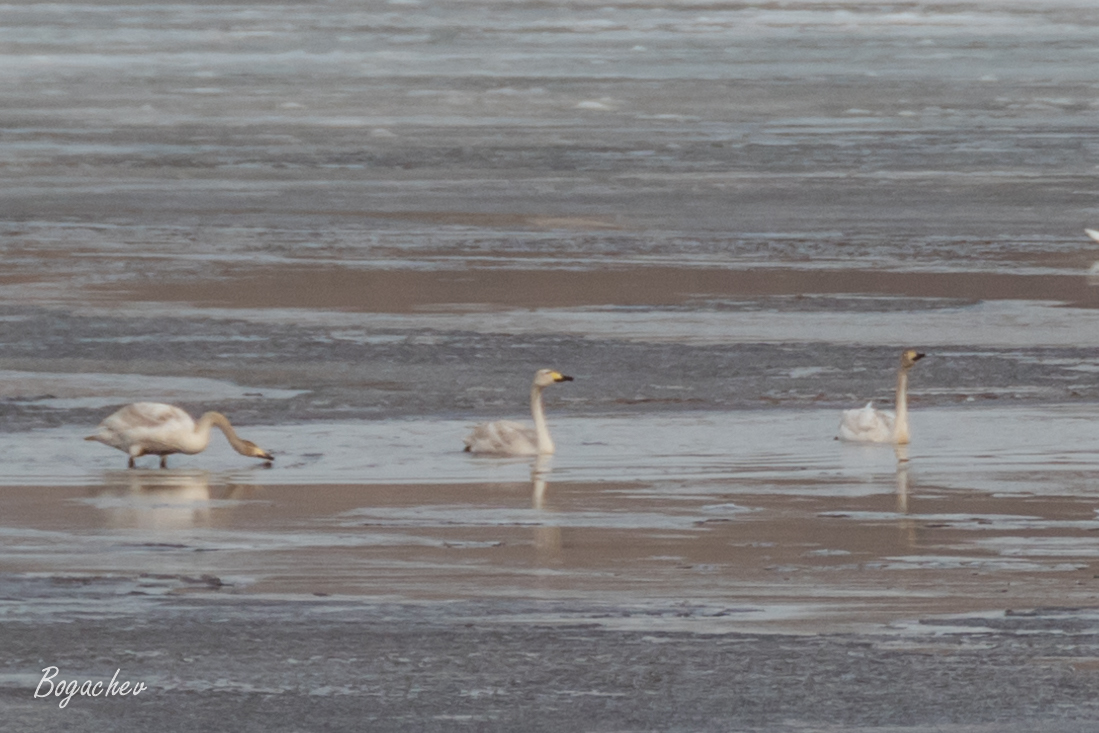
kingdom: Animalia
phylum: Chordata
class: Aves
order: Anseriformes
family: Anatidae
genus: Cygnus
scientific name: Cygnus cygnus
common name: Whooper swan
